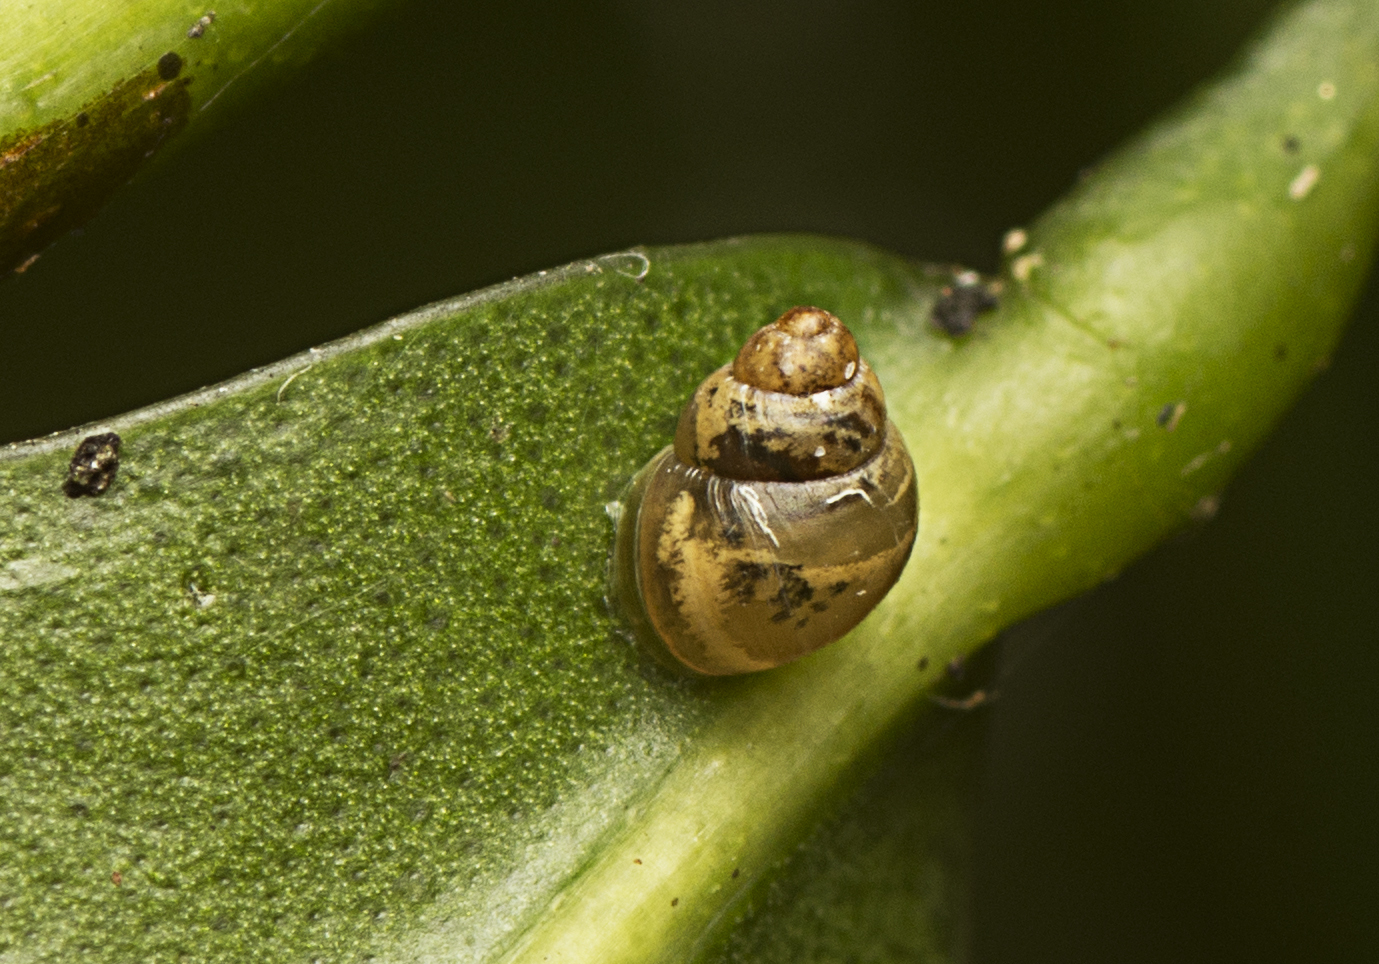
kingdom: Animalia
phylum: Mollusca
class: Gastropoda
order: Stylommatophora
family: Achatinellidae
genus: Tornatellinops
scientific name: Tornatellinops mastersi
